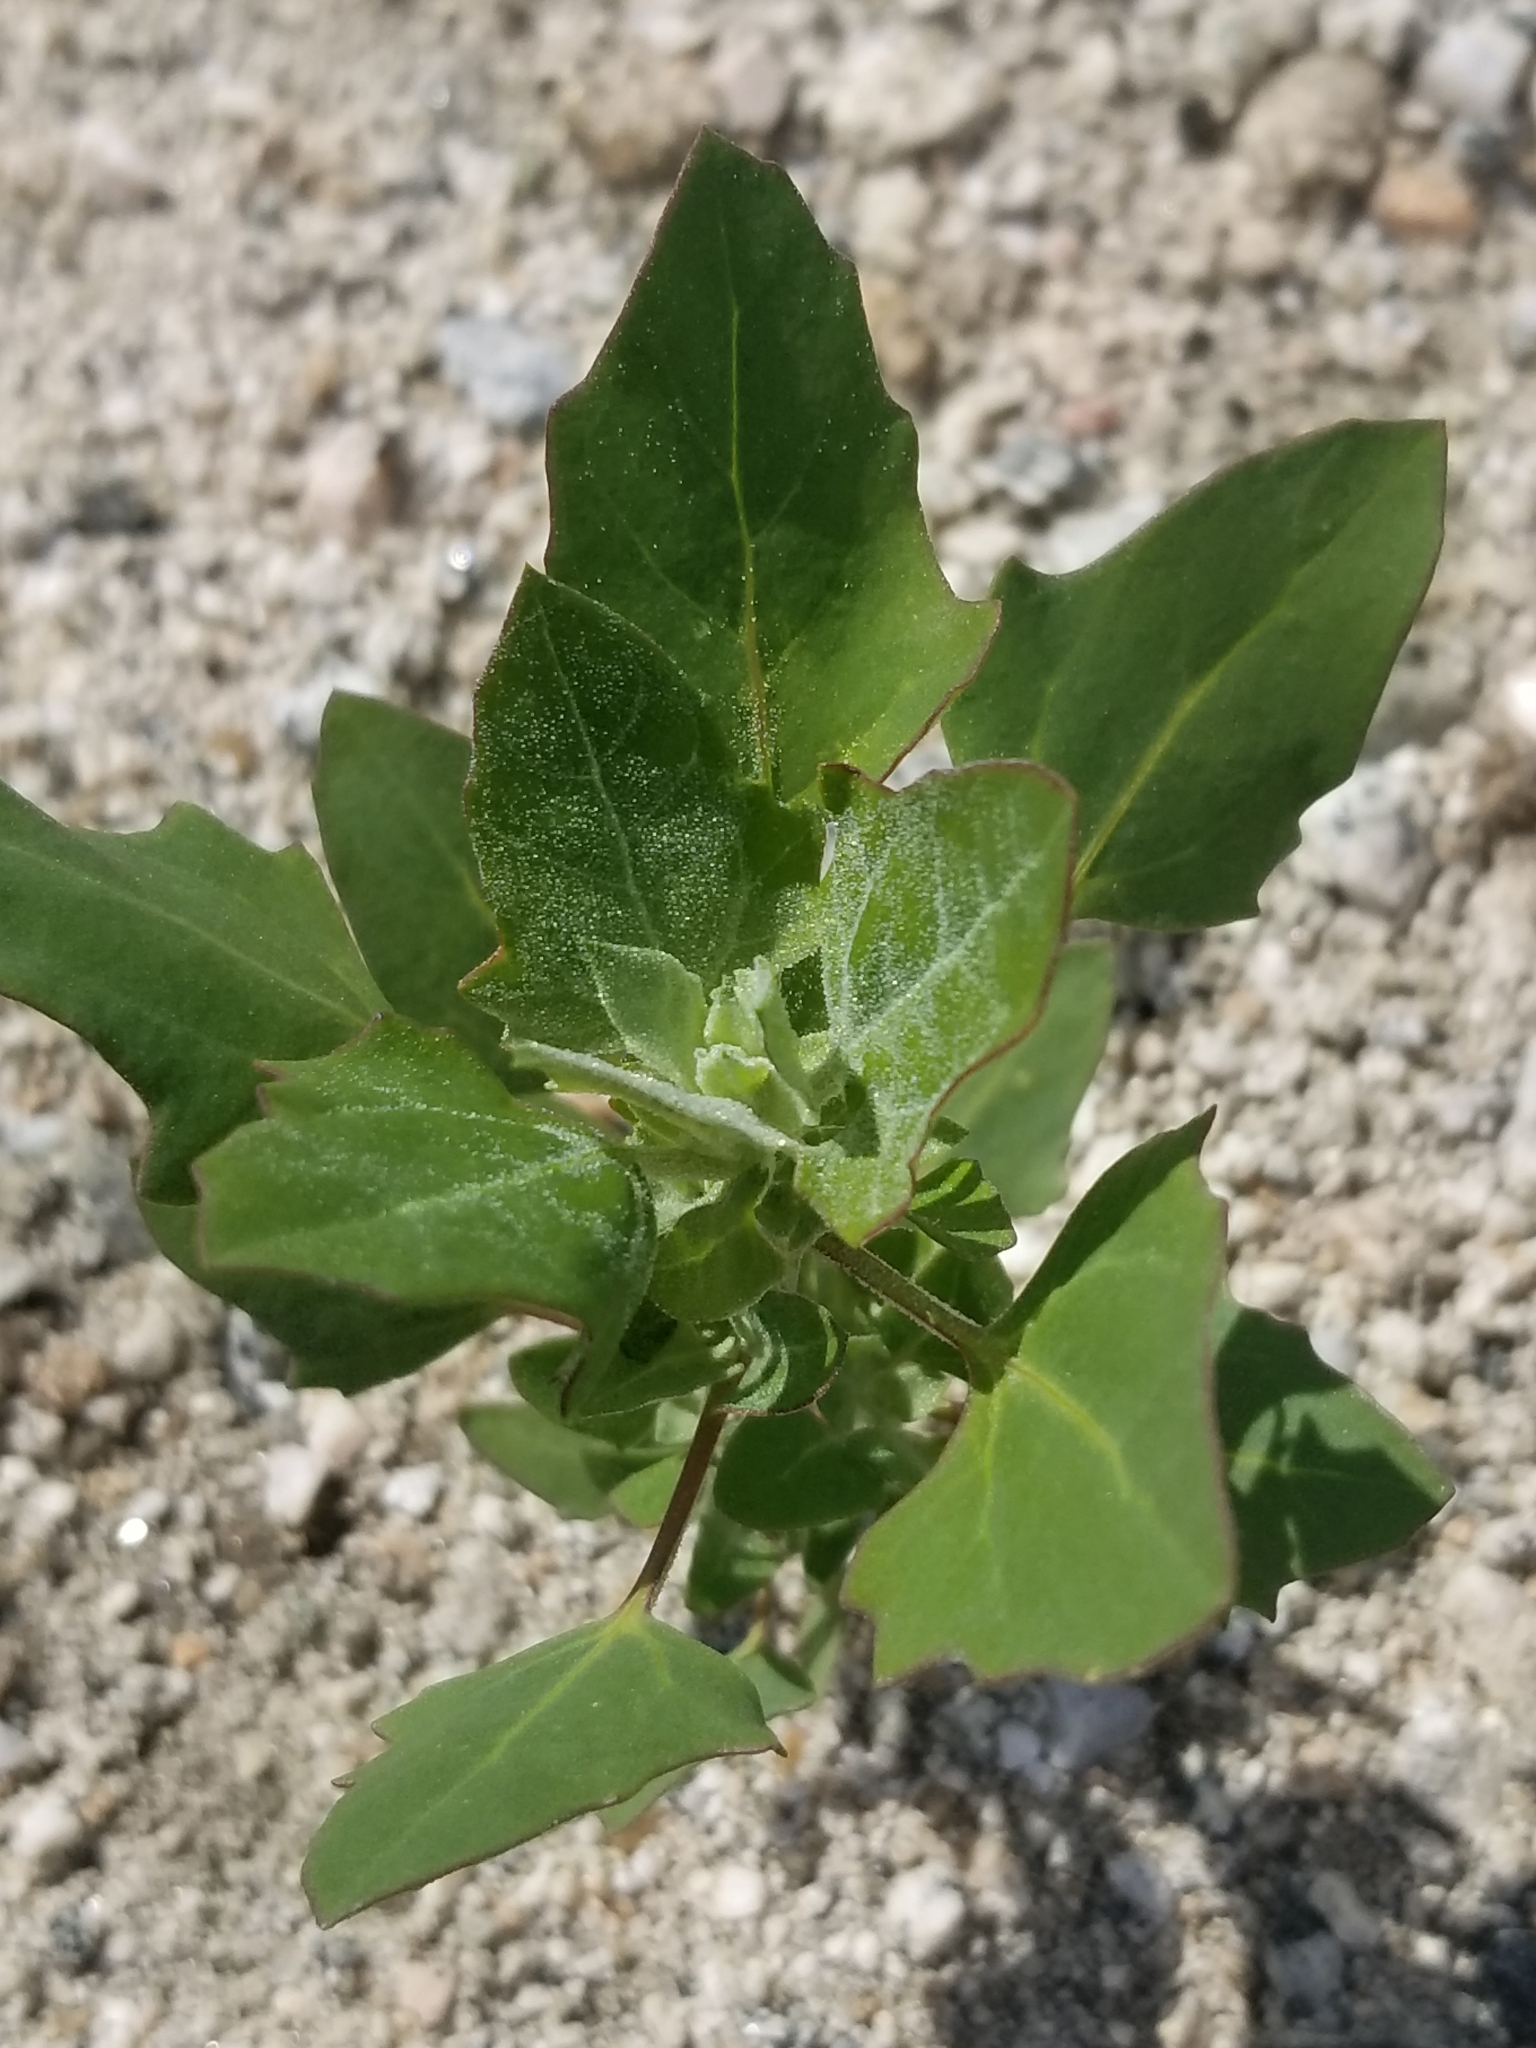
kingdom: Plantae
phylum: Tracheophyta
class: Magnoliopsida
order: Caryophyllales
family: Amaranthaceae
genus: Chenopodiastrum
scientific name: Chenopodiastrum murale
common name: Sowbane
